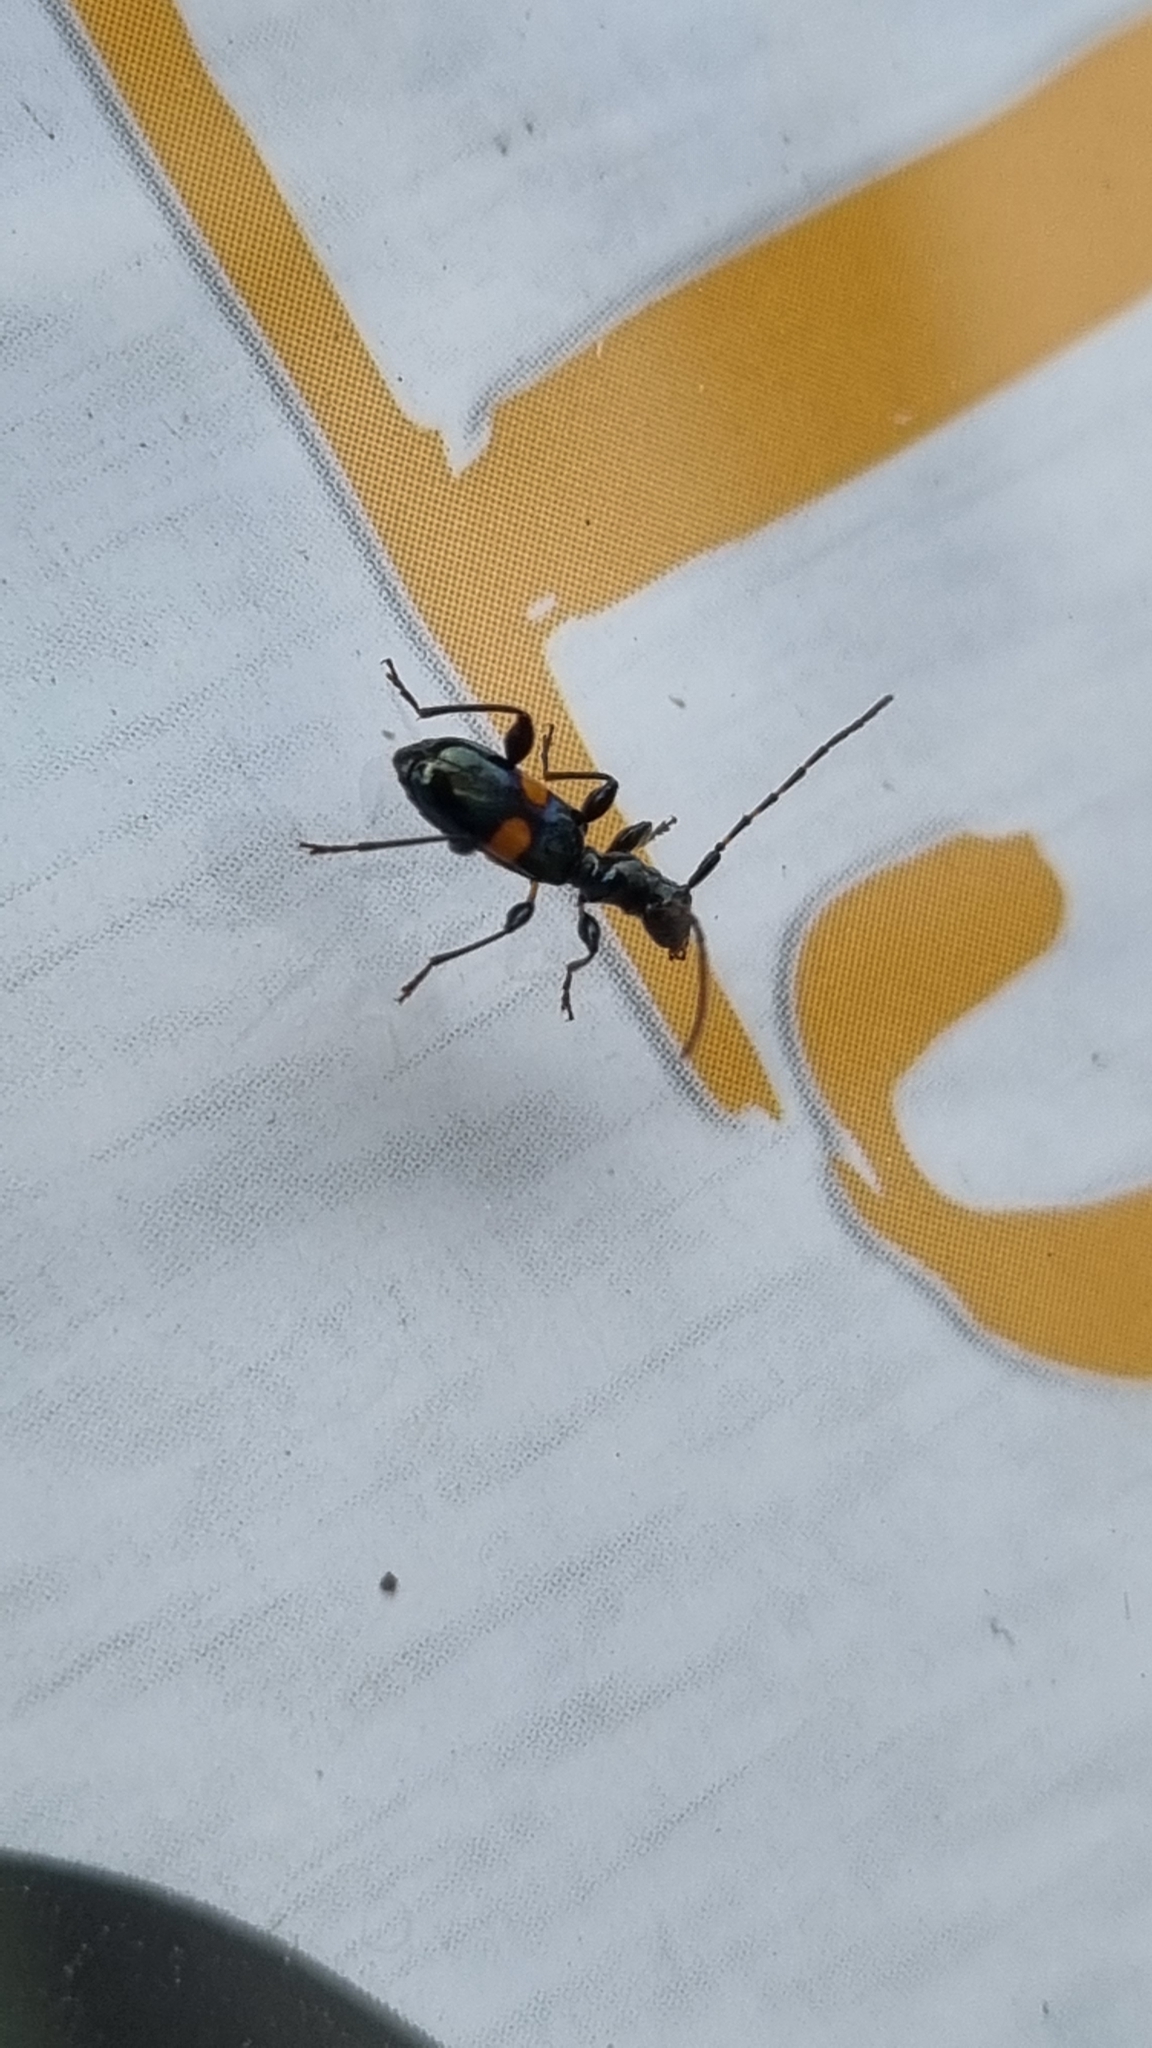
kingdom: Animalia
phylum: Arthropoda
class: Insecta
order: Coleoptera
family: Cerambycidae
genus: Zorion
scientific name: Zorion guttigerum
